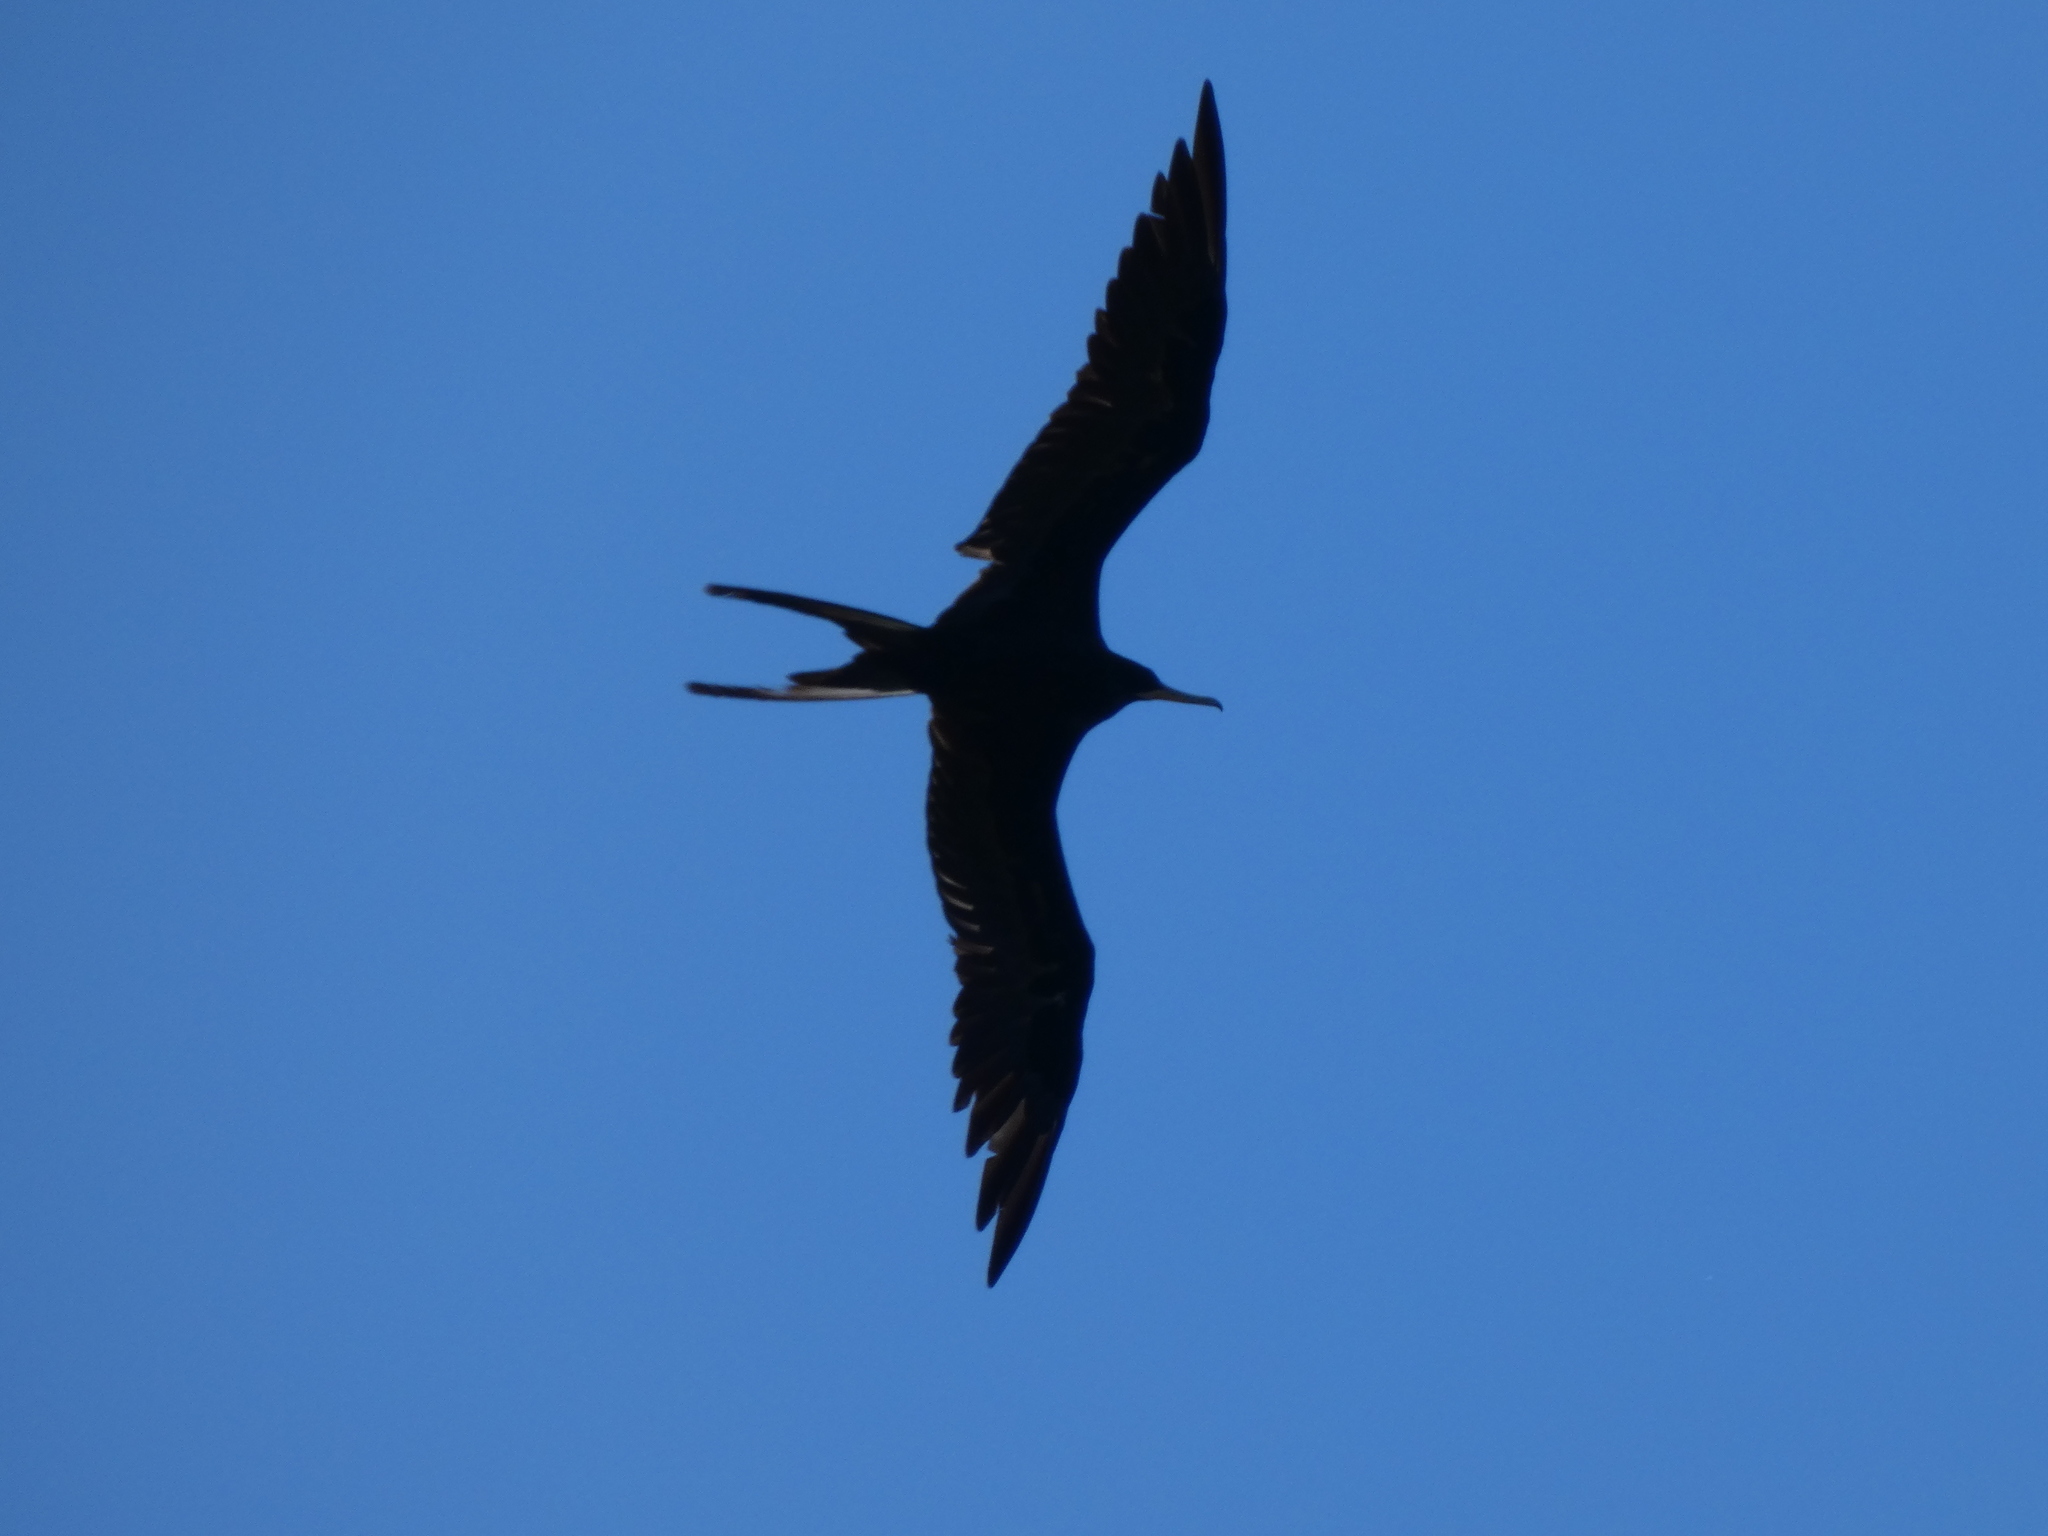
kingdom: Animalia
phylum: Chordata
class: Aves
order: Suliformes
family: Fregatidae
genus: Fregata
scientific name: Fregata magnificens
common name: Magnificent frigatebird
